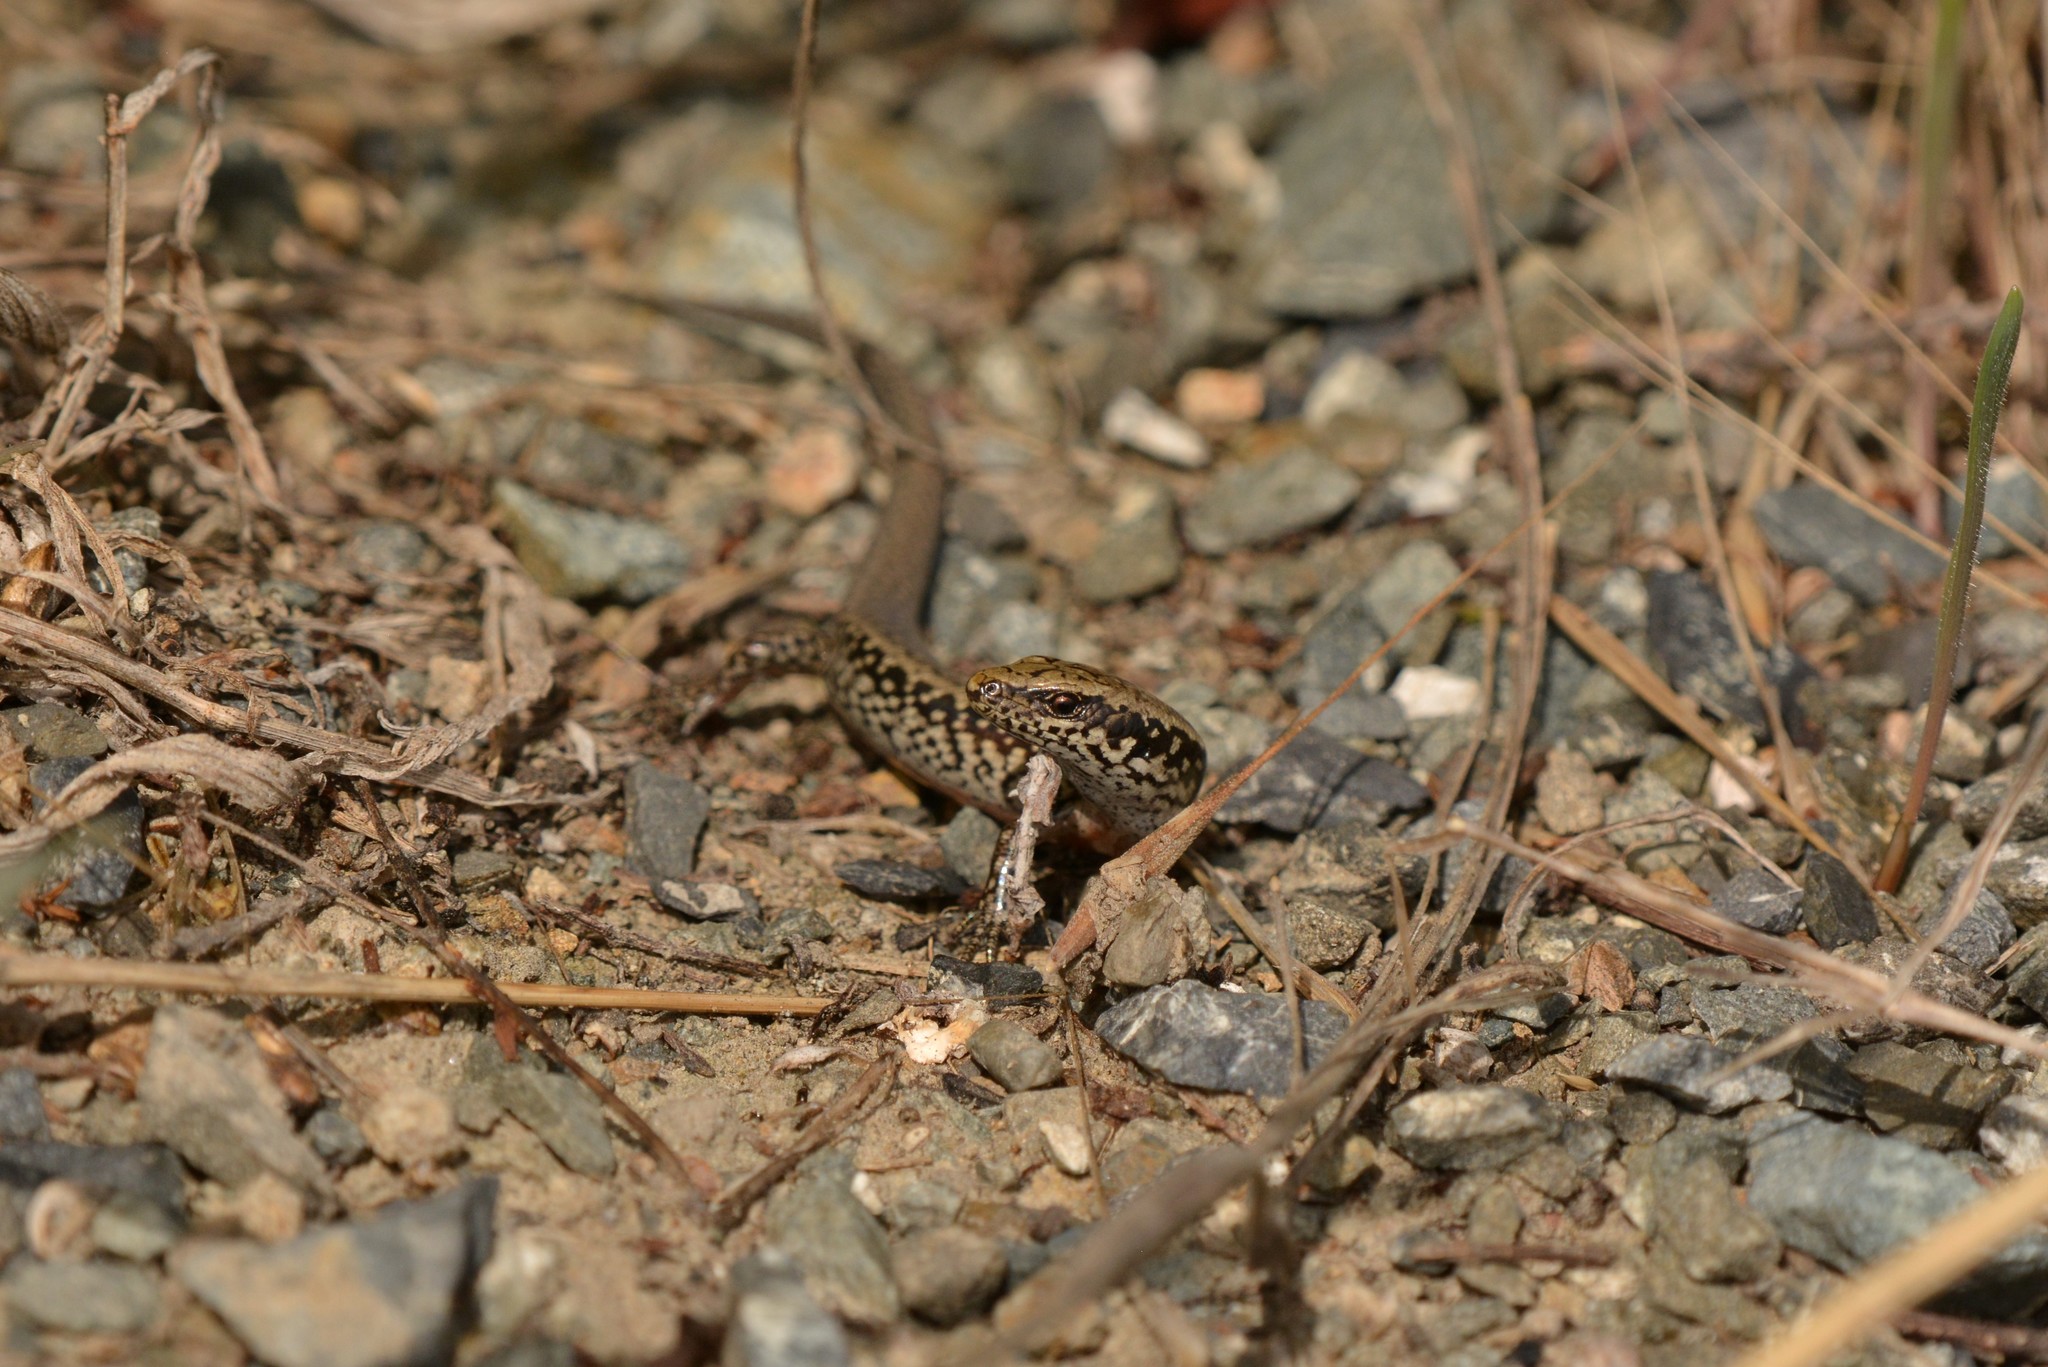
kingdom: Animalia
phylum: Chordata
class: Squamata
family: Scincidae
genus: Oligosoma
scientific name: Oligosoma kokowai
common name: Northern spotted skink
